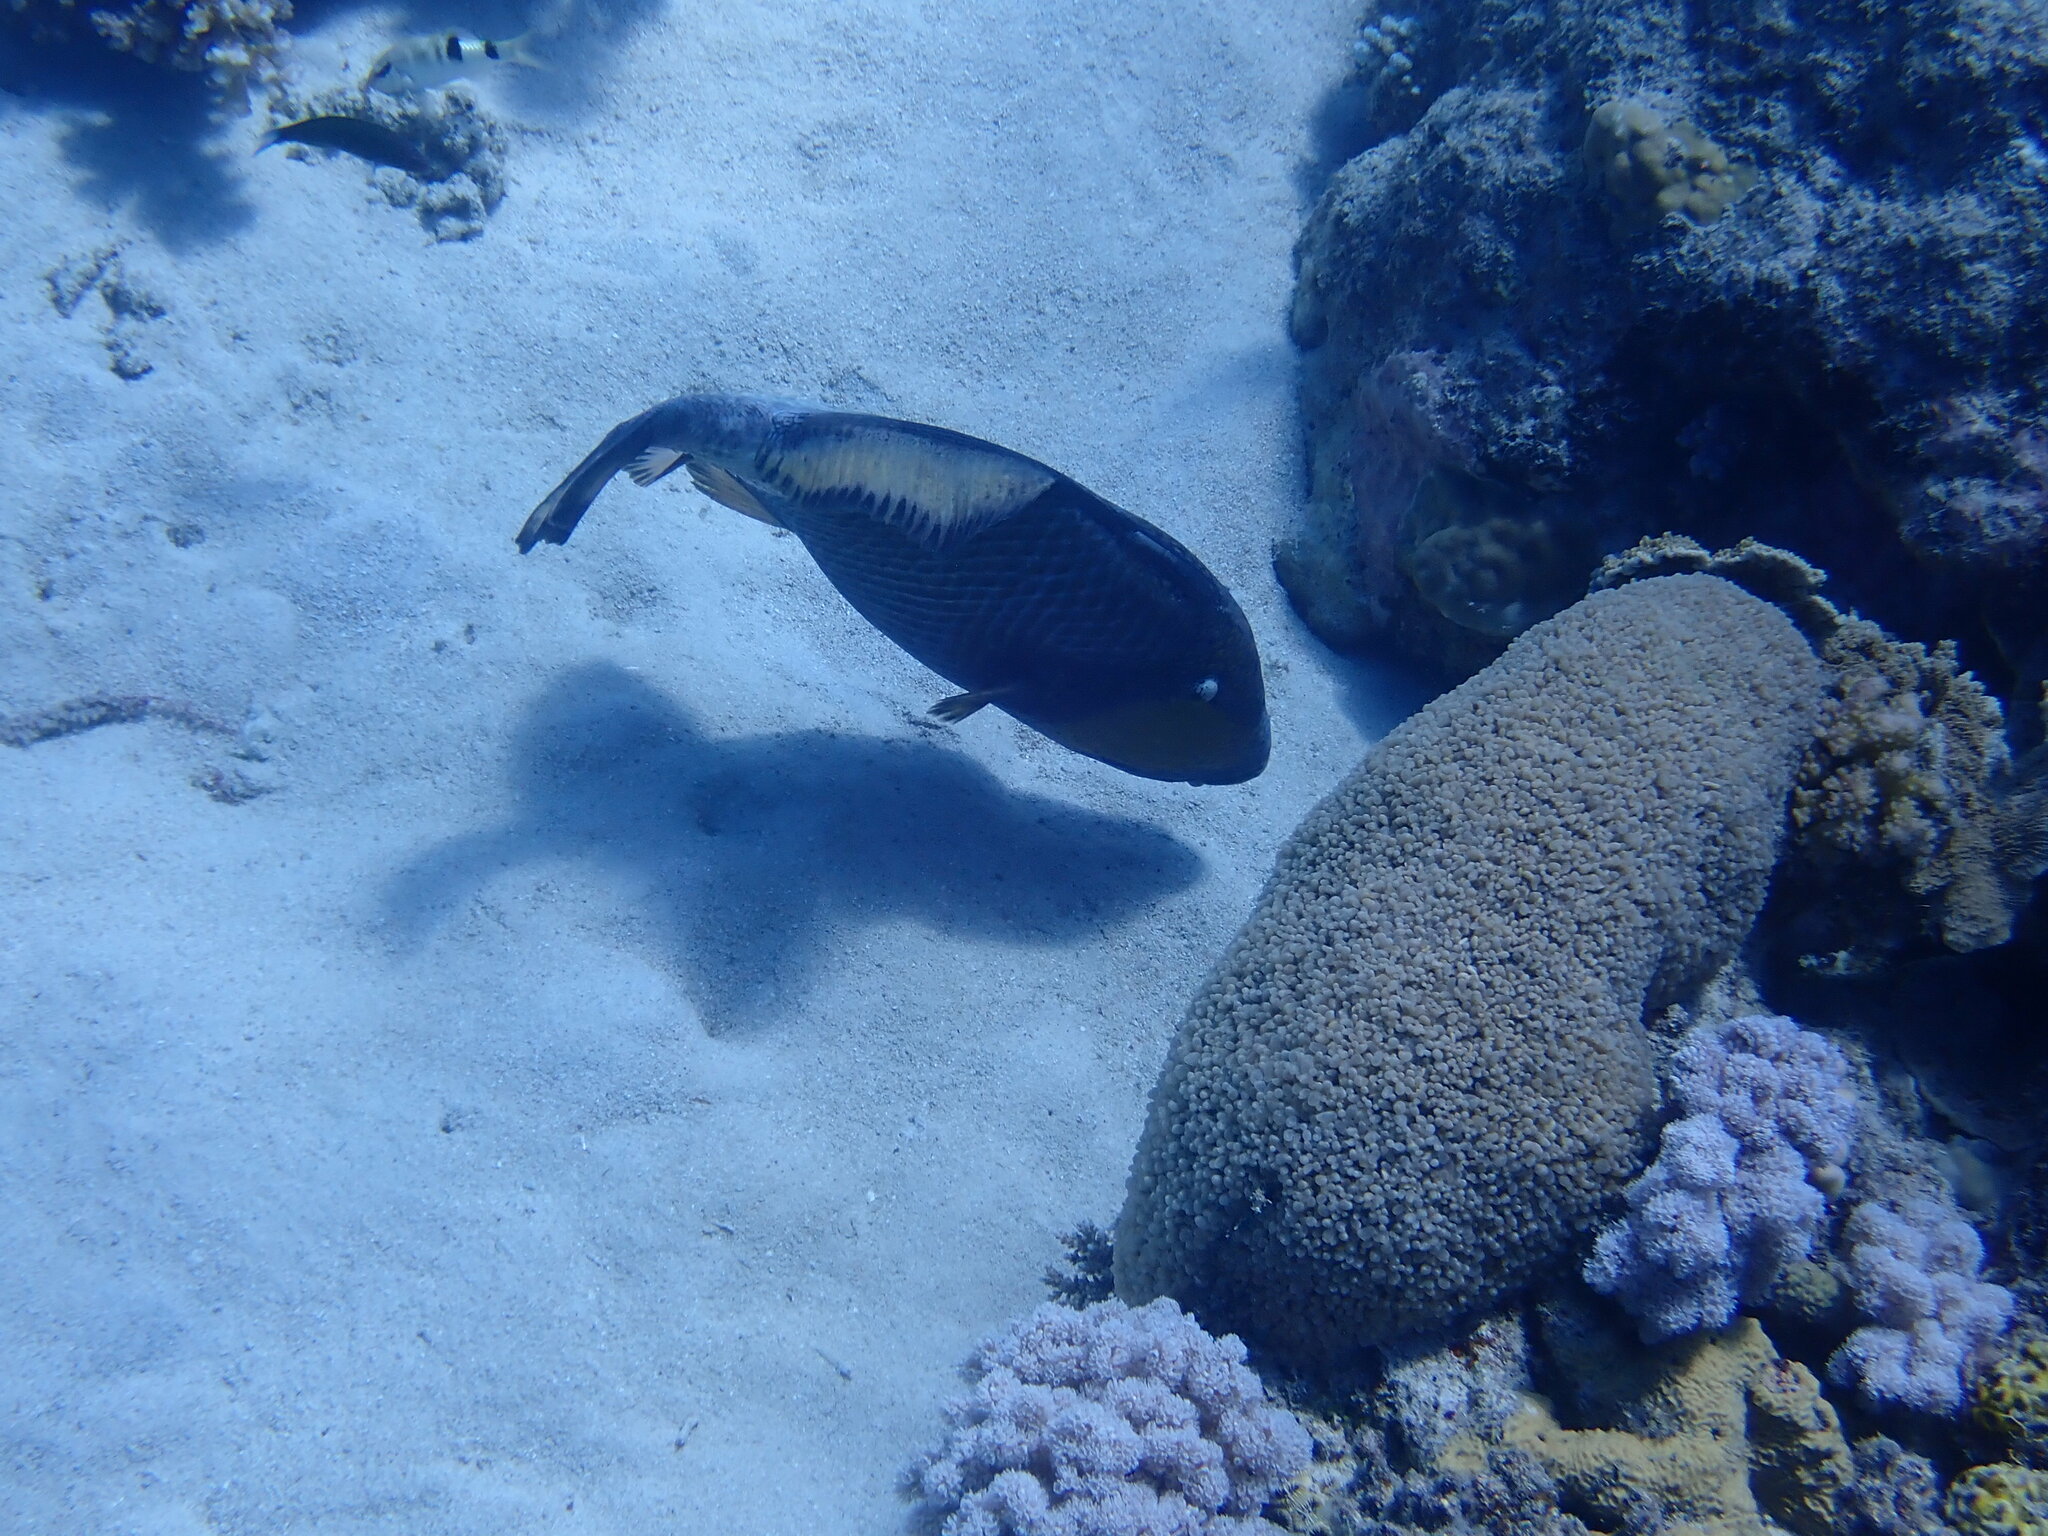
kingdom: Animalia
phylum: Chordata
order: Tetraodontiformes
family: Balistidae
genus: Balistoides
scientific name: Balistoides viridescens
